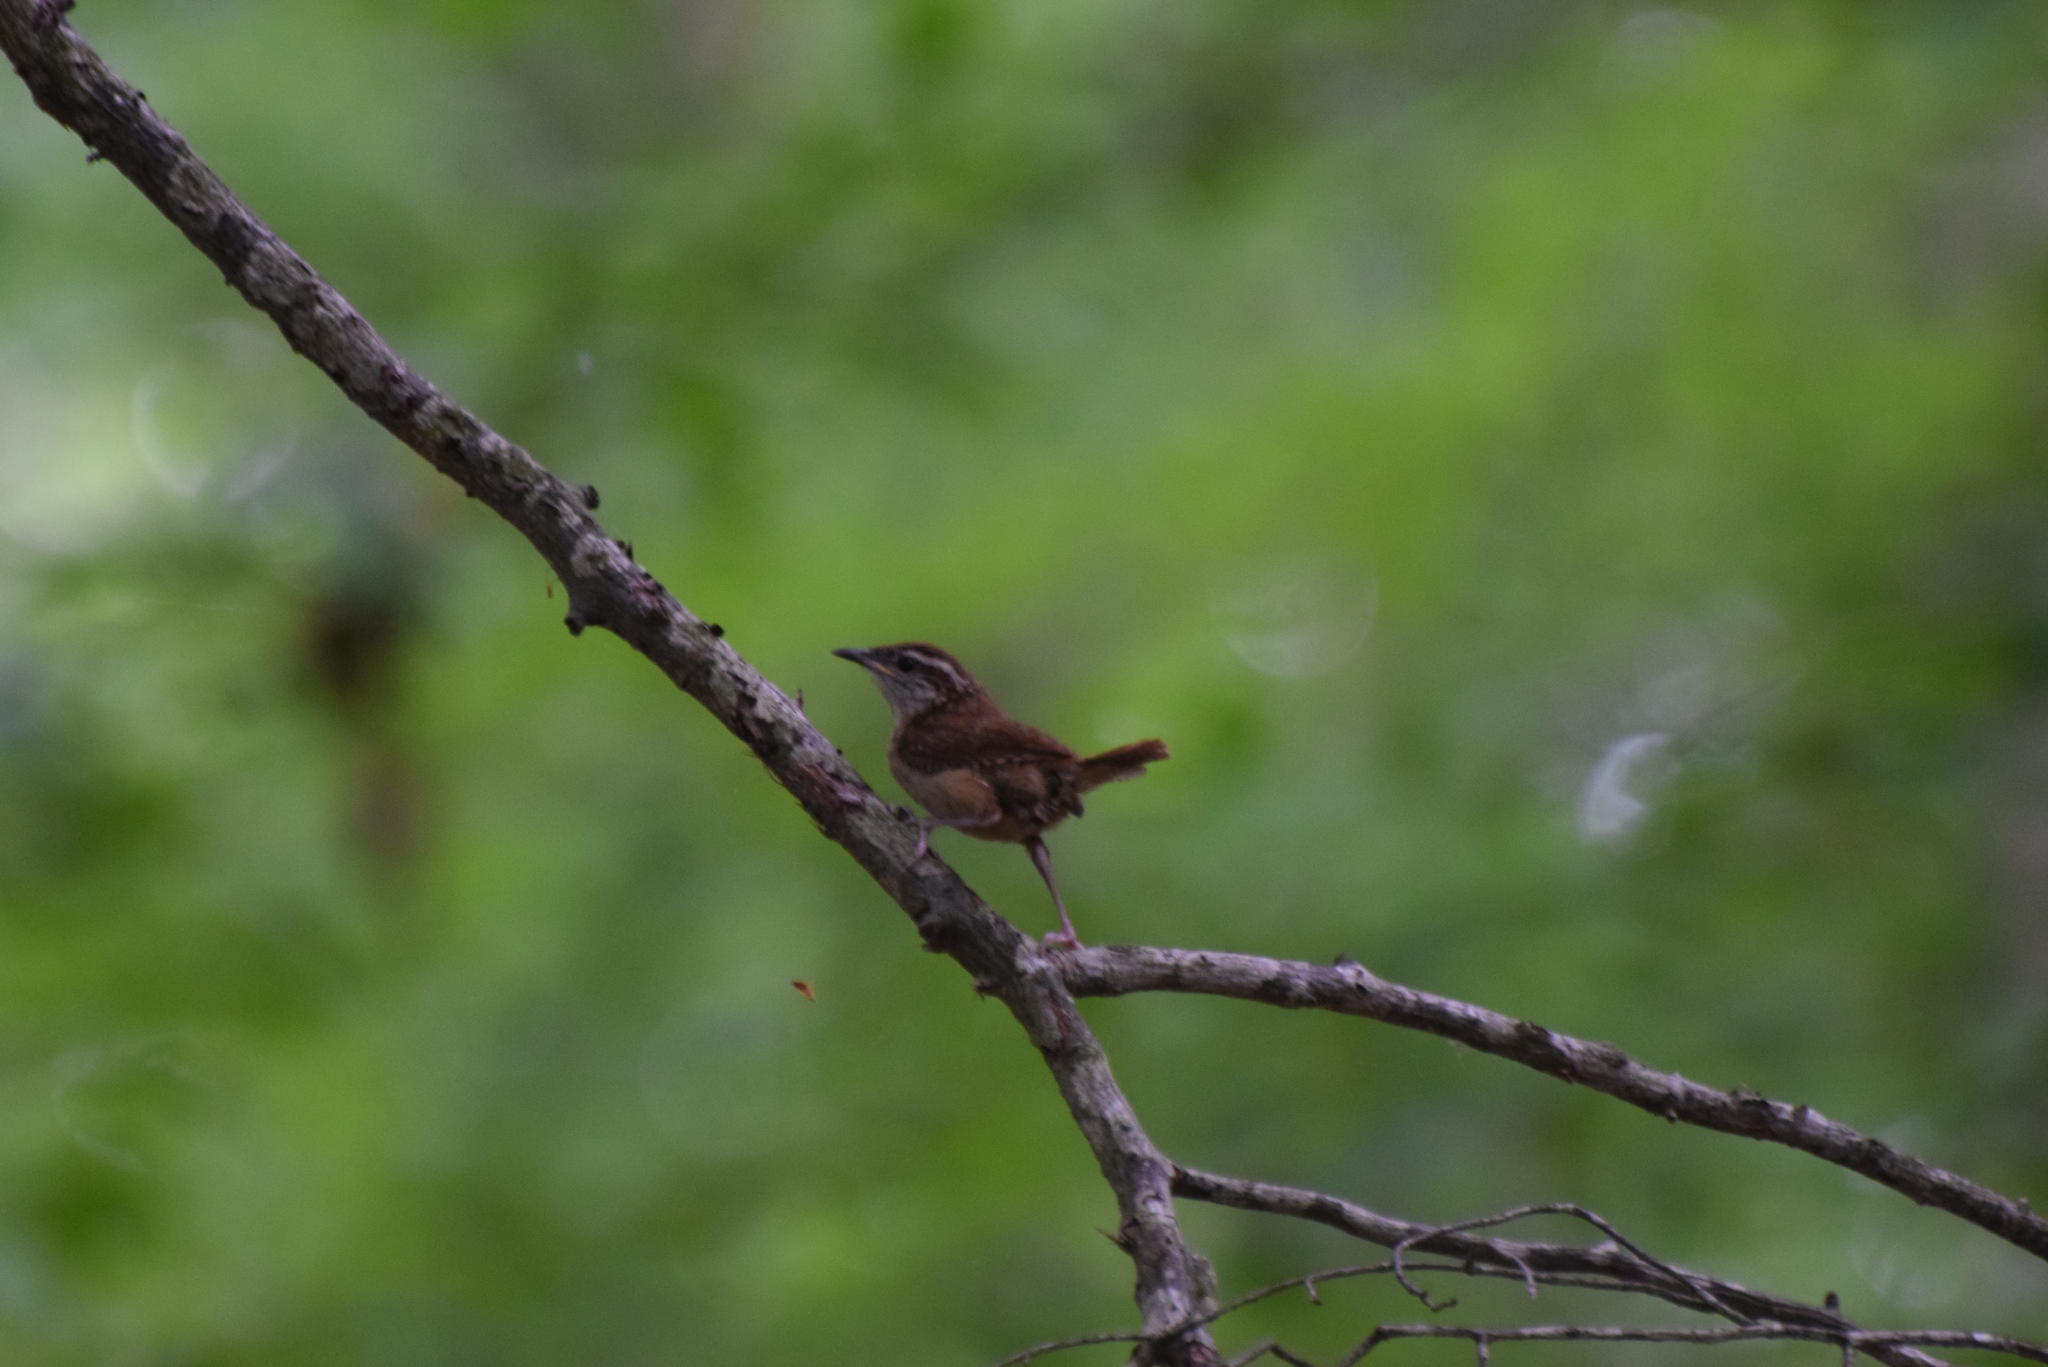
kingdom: Animalia
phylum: Chordata
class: Aves
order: Passeriformes
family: Troglodytidae
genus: Thryothorus
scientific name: Thryothorus ludovicianus
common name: Carolina wren
